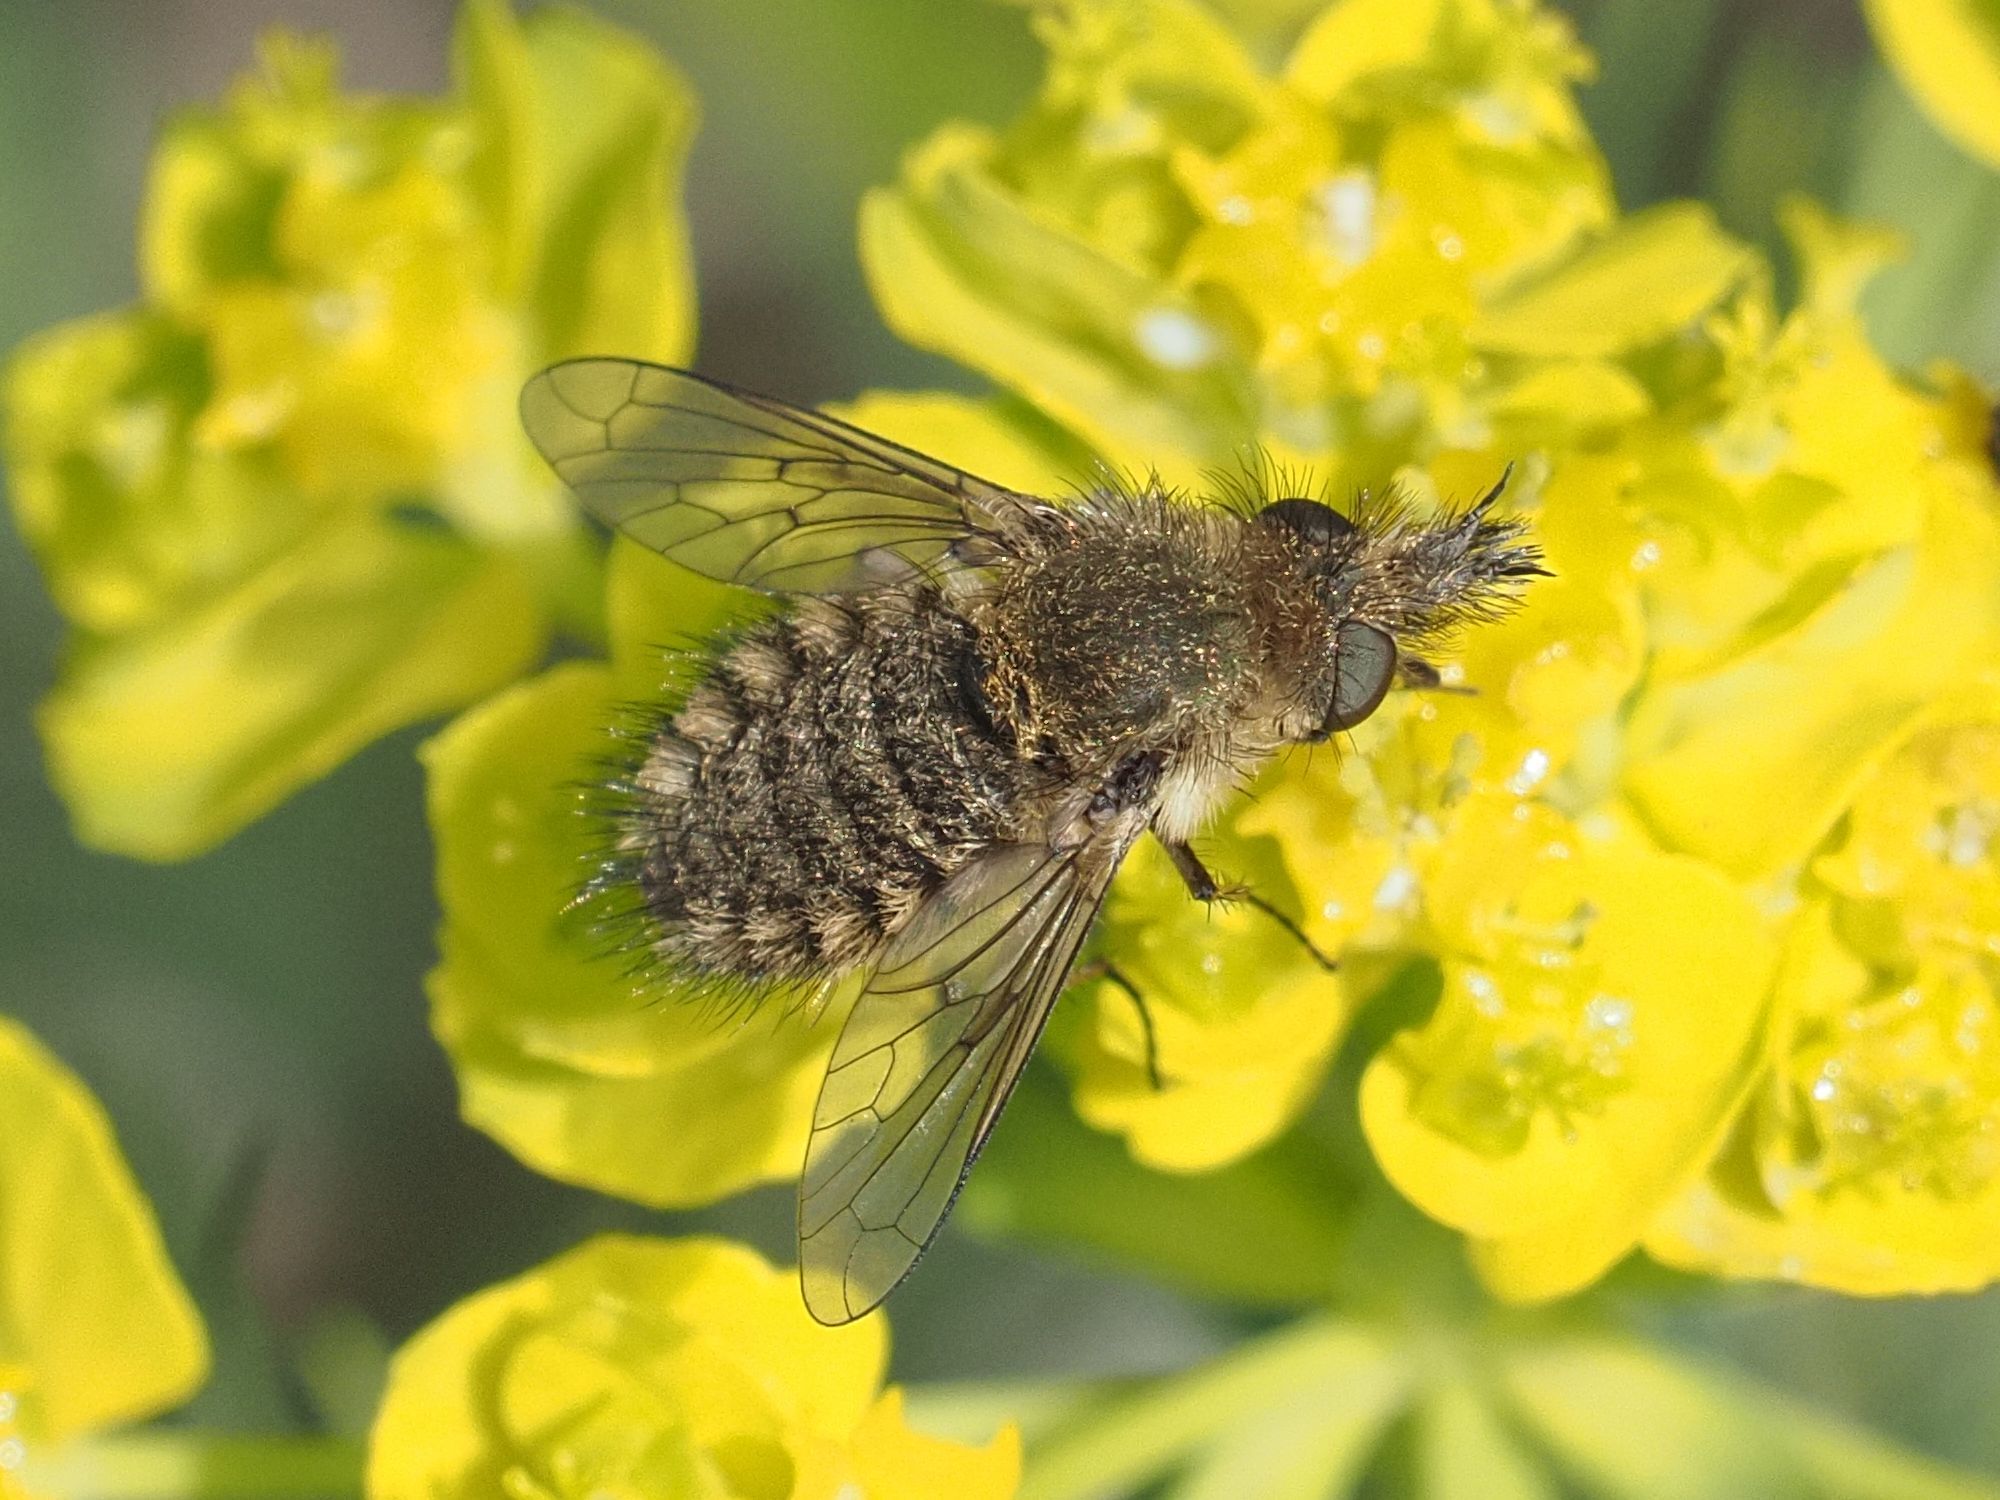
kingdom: Animalia
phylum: Arthropoda
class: Insecta
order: Diptera
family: Bombyliidae
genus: Conophorus
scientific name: Conophorus virescens
